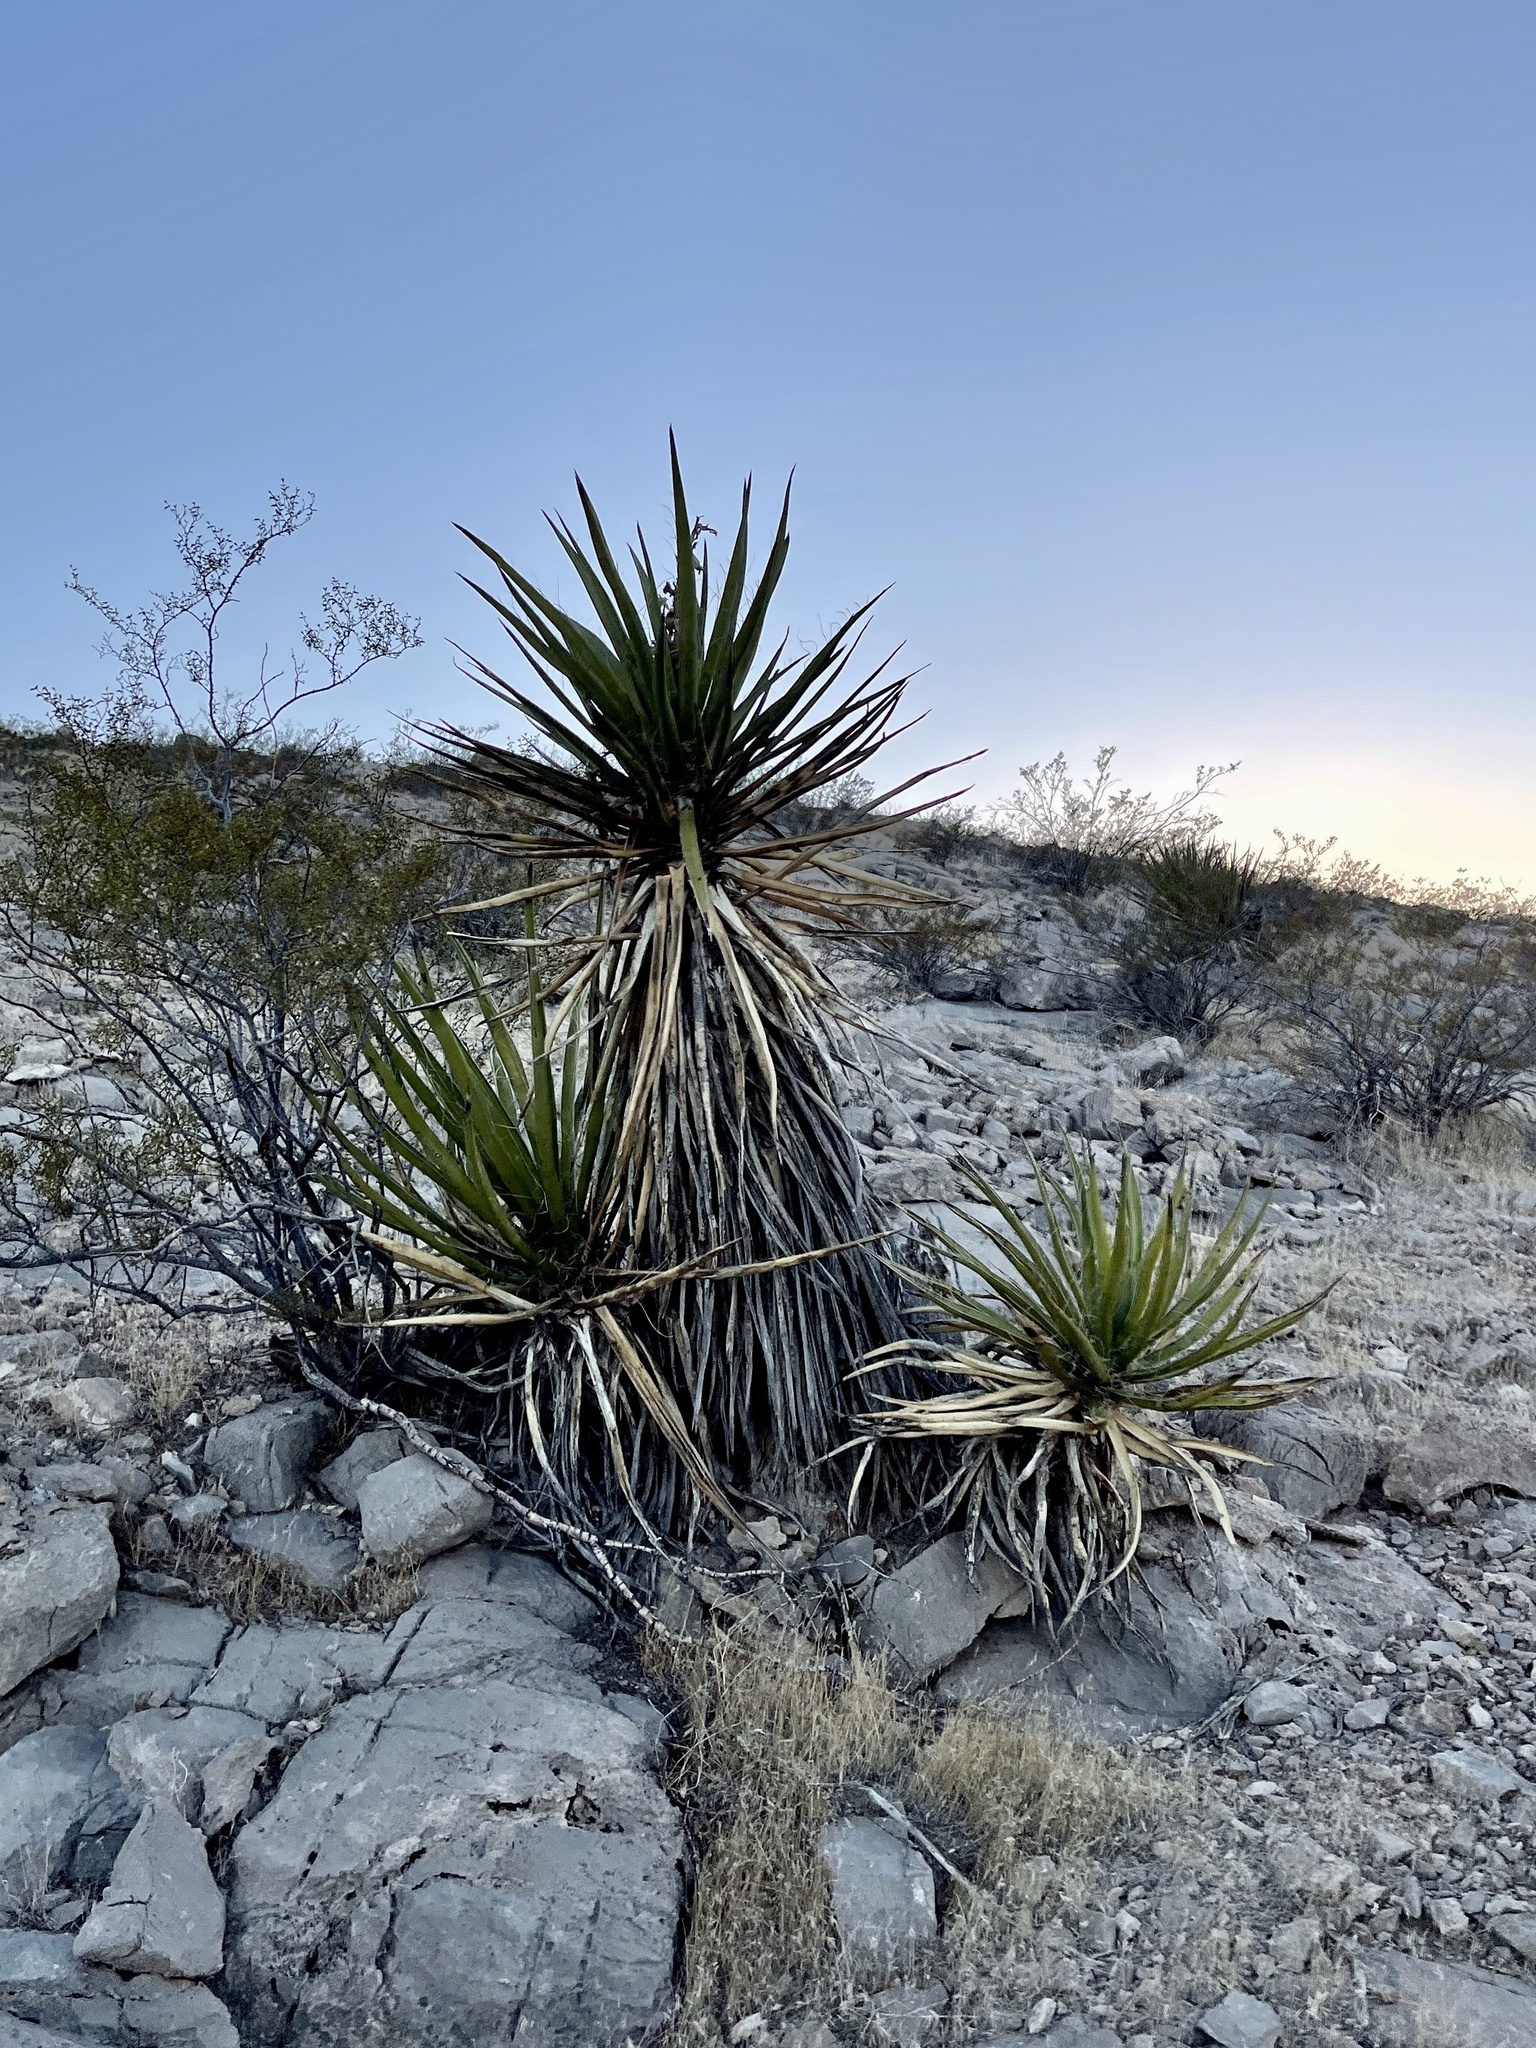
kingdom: Plantae
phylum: Tracheophyta
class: Liliopsida
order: Asparagales
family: Asparagaceae
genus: Yucca
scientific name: Yucca schidigera
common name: Mojave yucca
